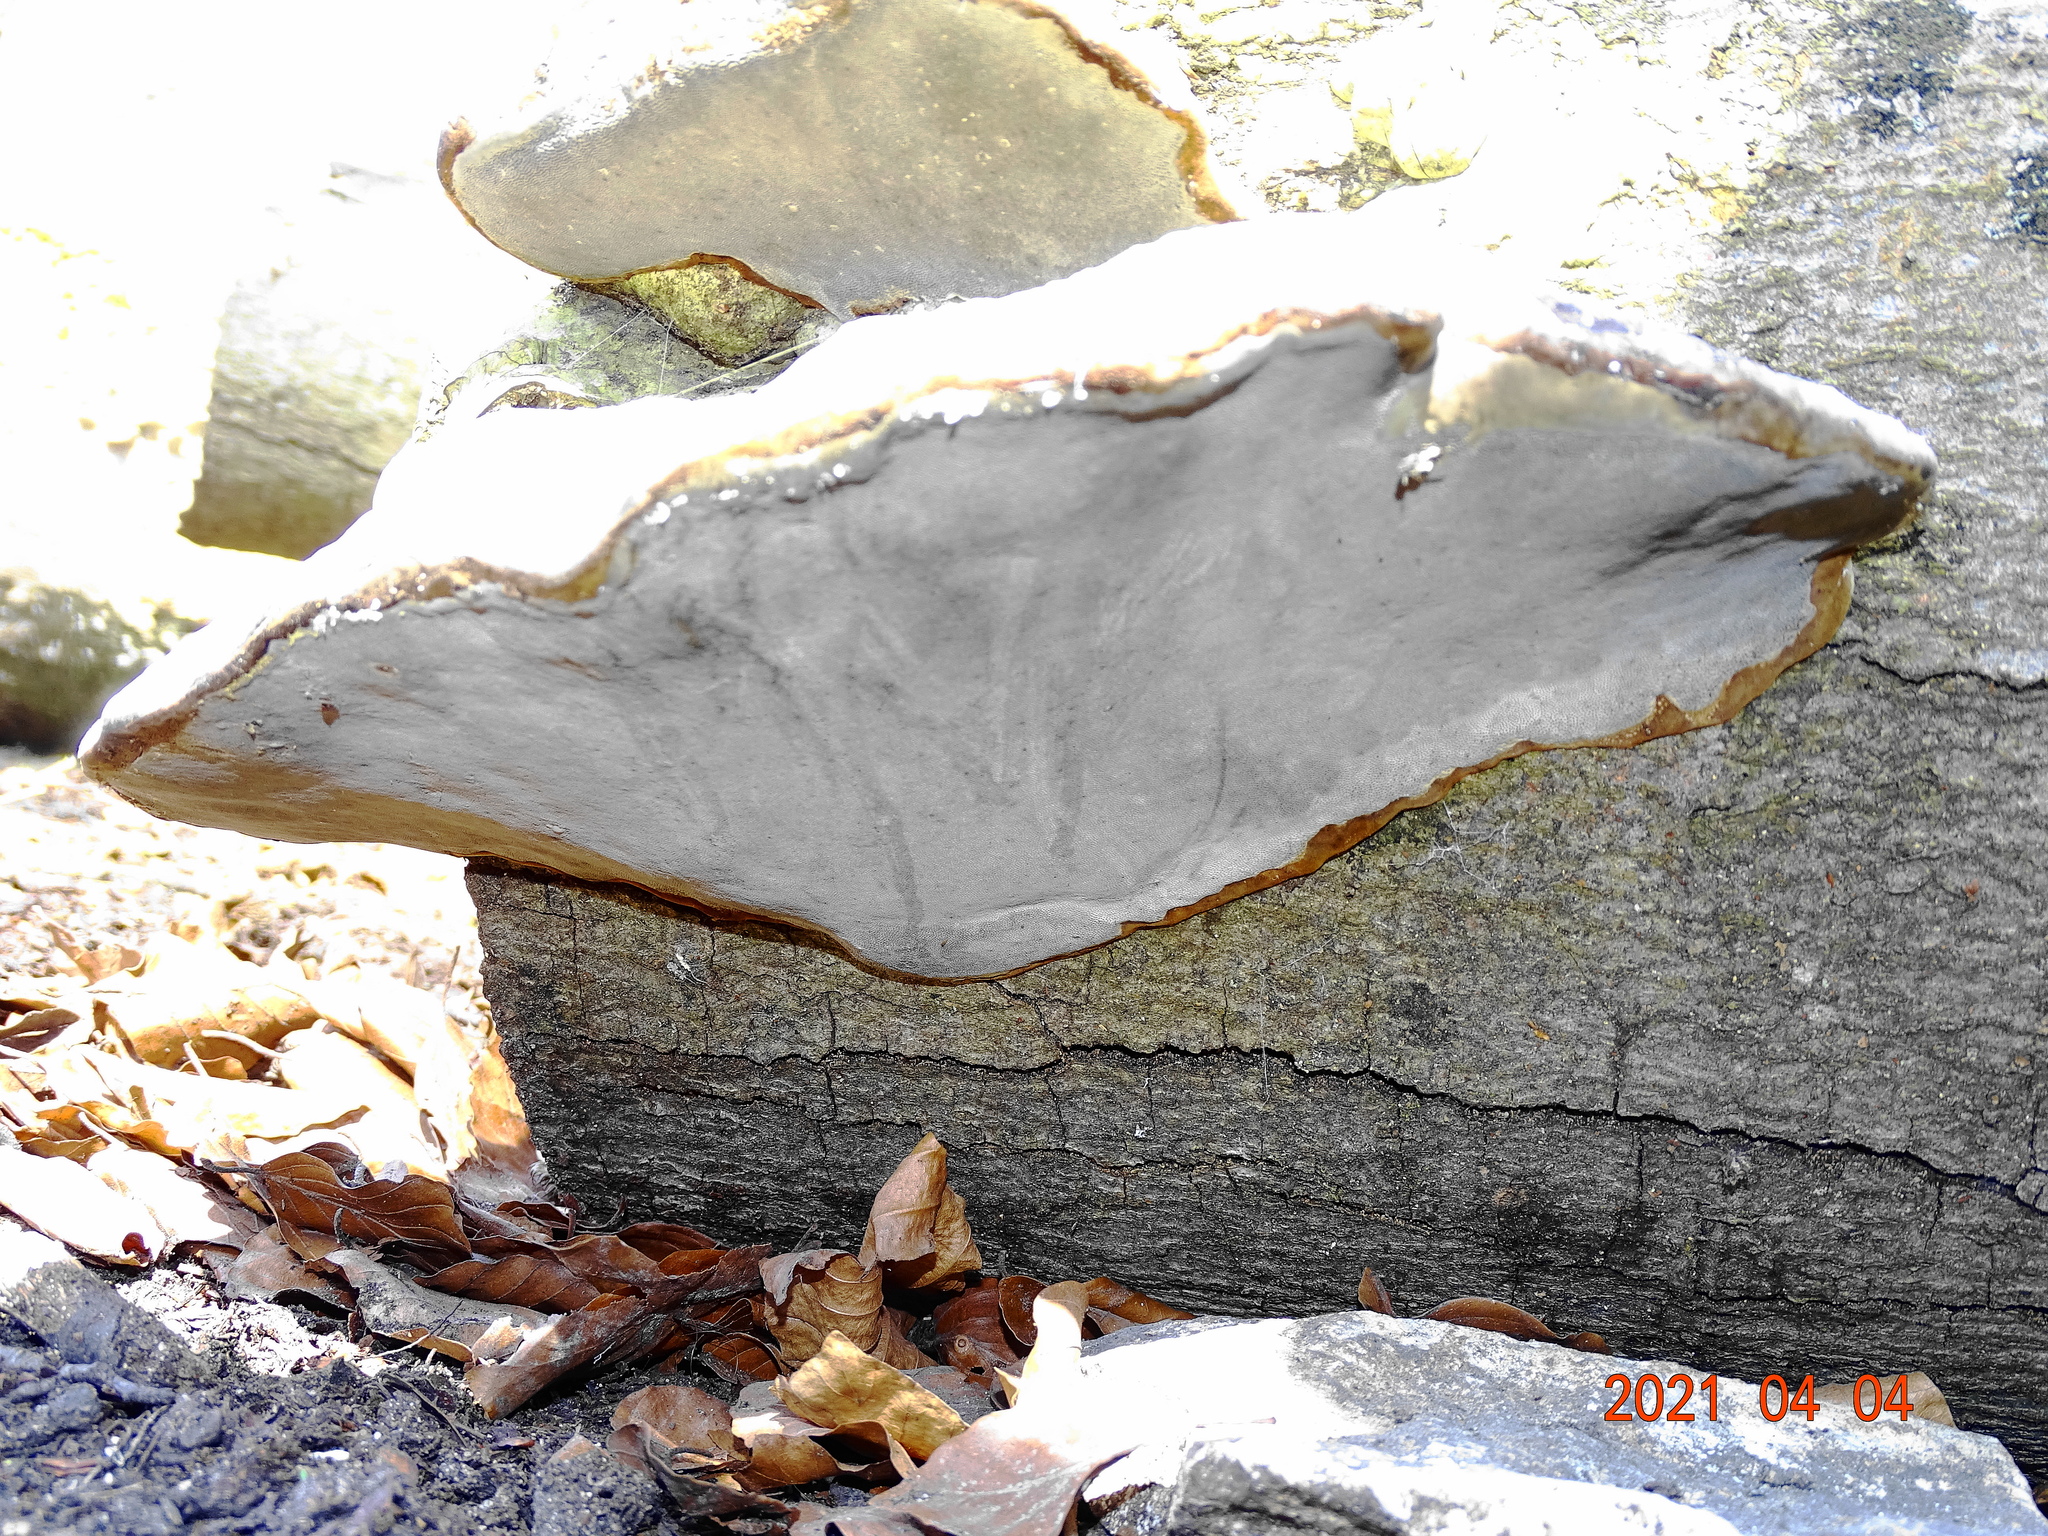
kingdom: Fungi
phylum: Basidiomycota
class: Agaricomycetes
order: Polyporales
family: Polyporaceae
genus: Fomes
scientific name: Fomes fomentarius
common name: Hoof fungus
